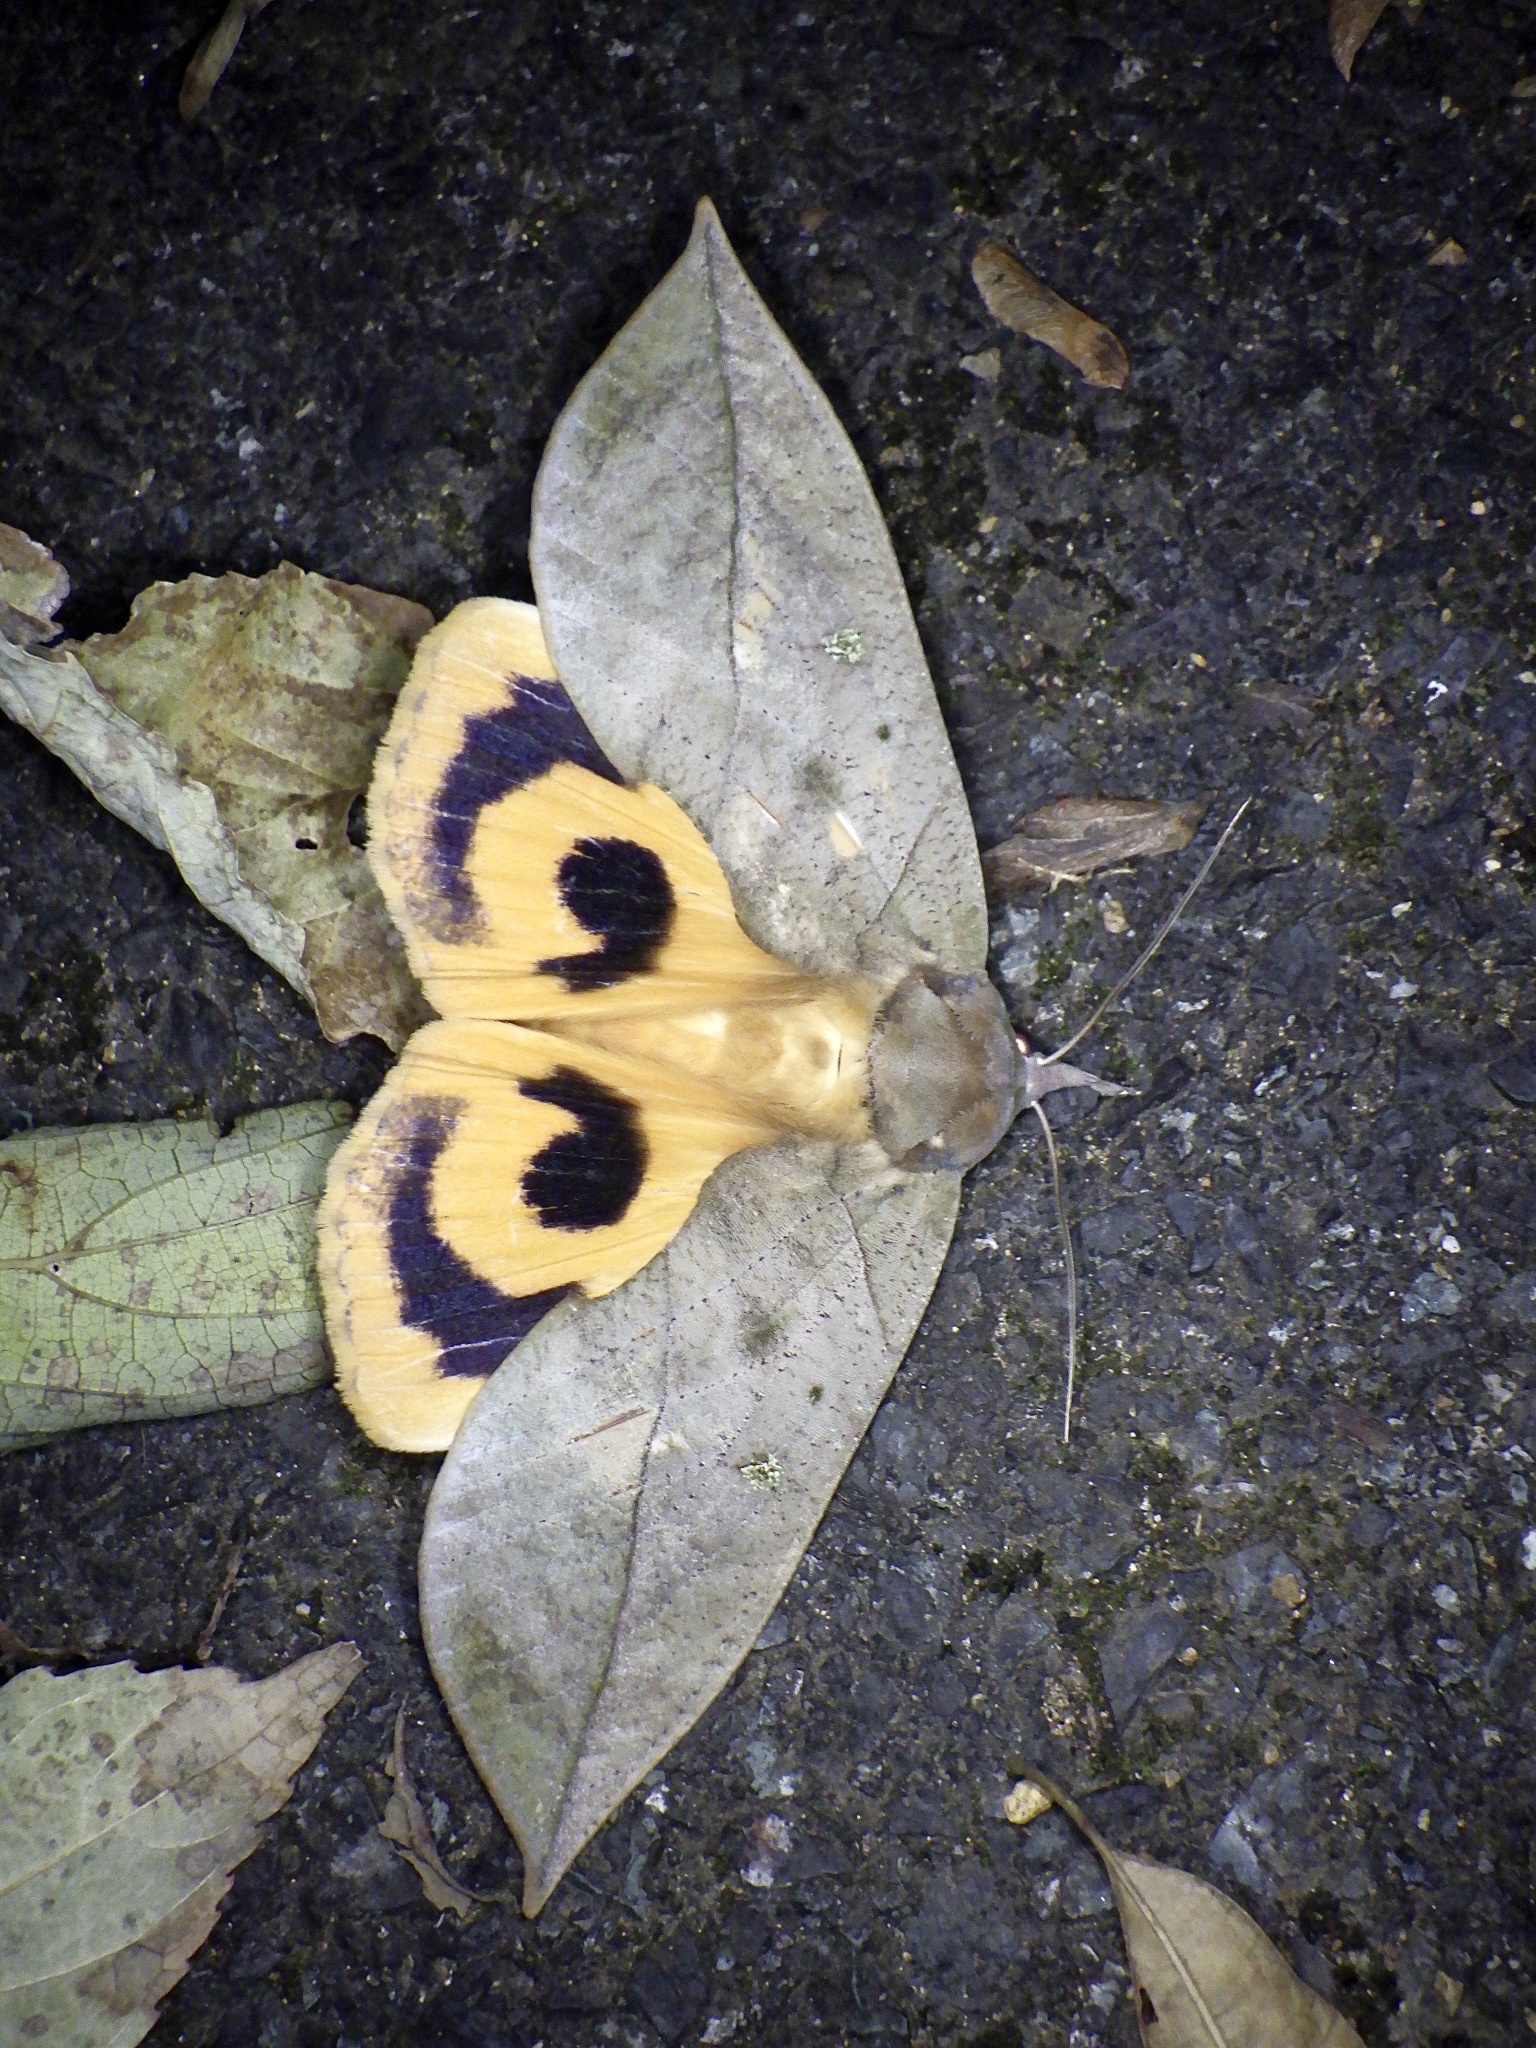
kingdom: Animalia
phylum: Arthropoda
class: Insecta
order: Lepidoptera
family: Erebidae
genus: Eudocima
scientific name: Eudocima tyrannus
